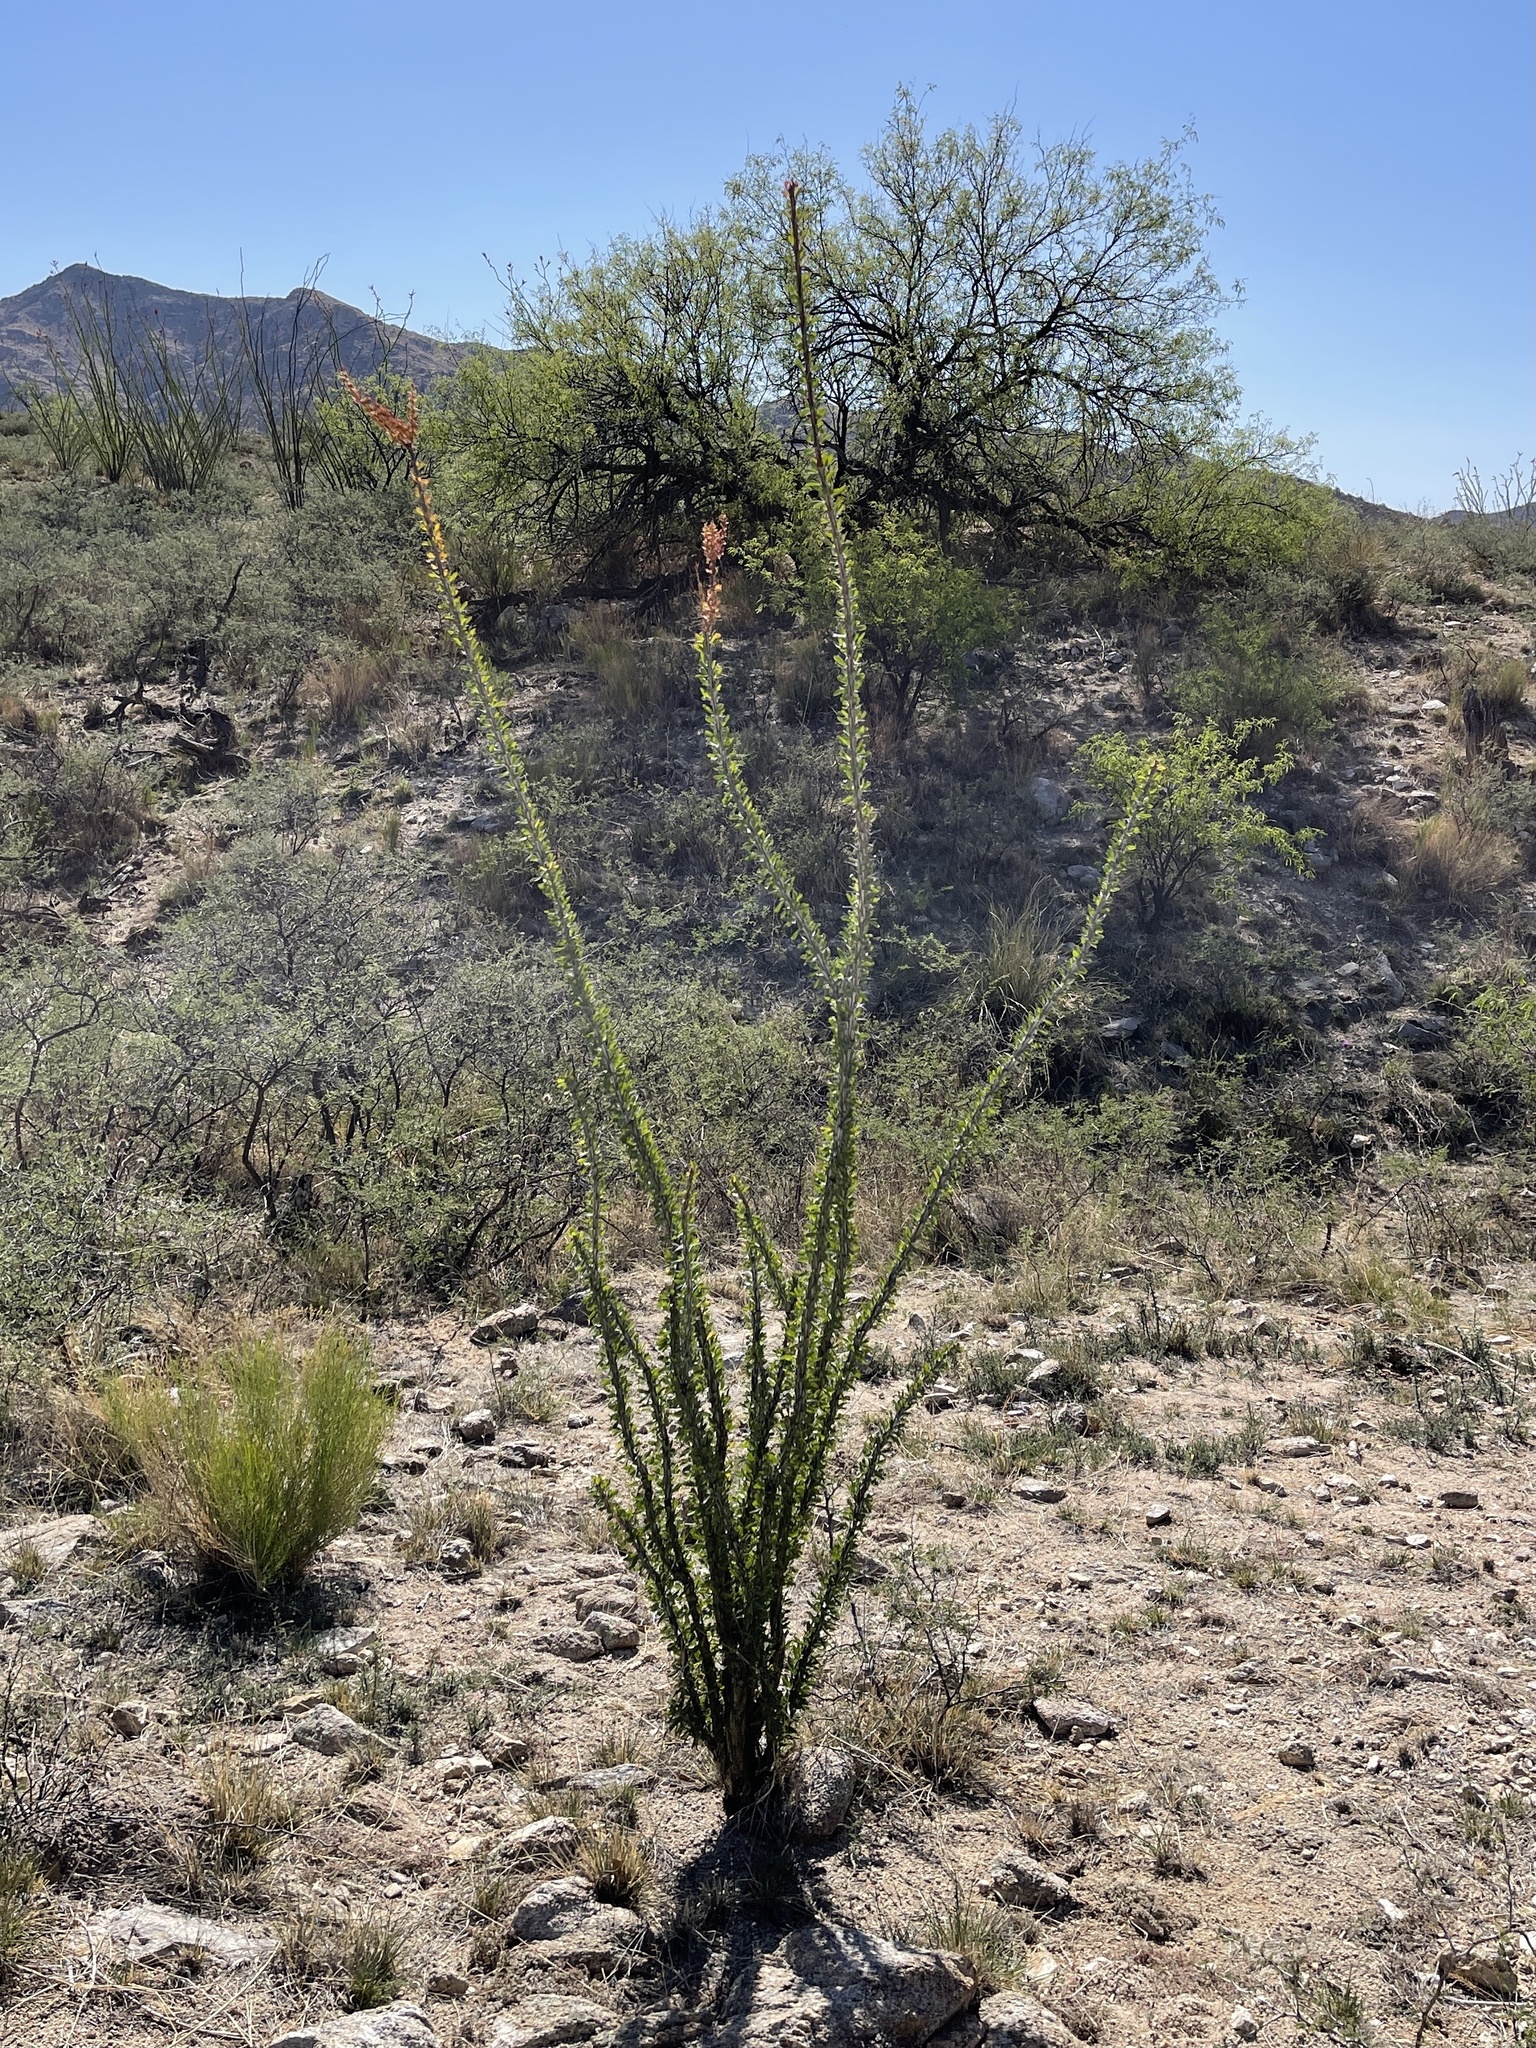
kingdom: Plantae
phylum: Tracheophyta
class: Magnoliopsida
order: Ericales
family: Fouquieriaceae
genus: Fouquieria
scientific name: Fouquieria splendens
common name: Vine-cactus
